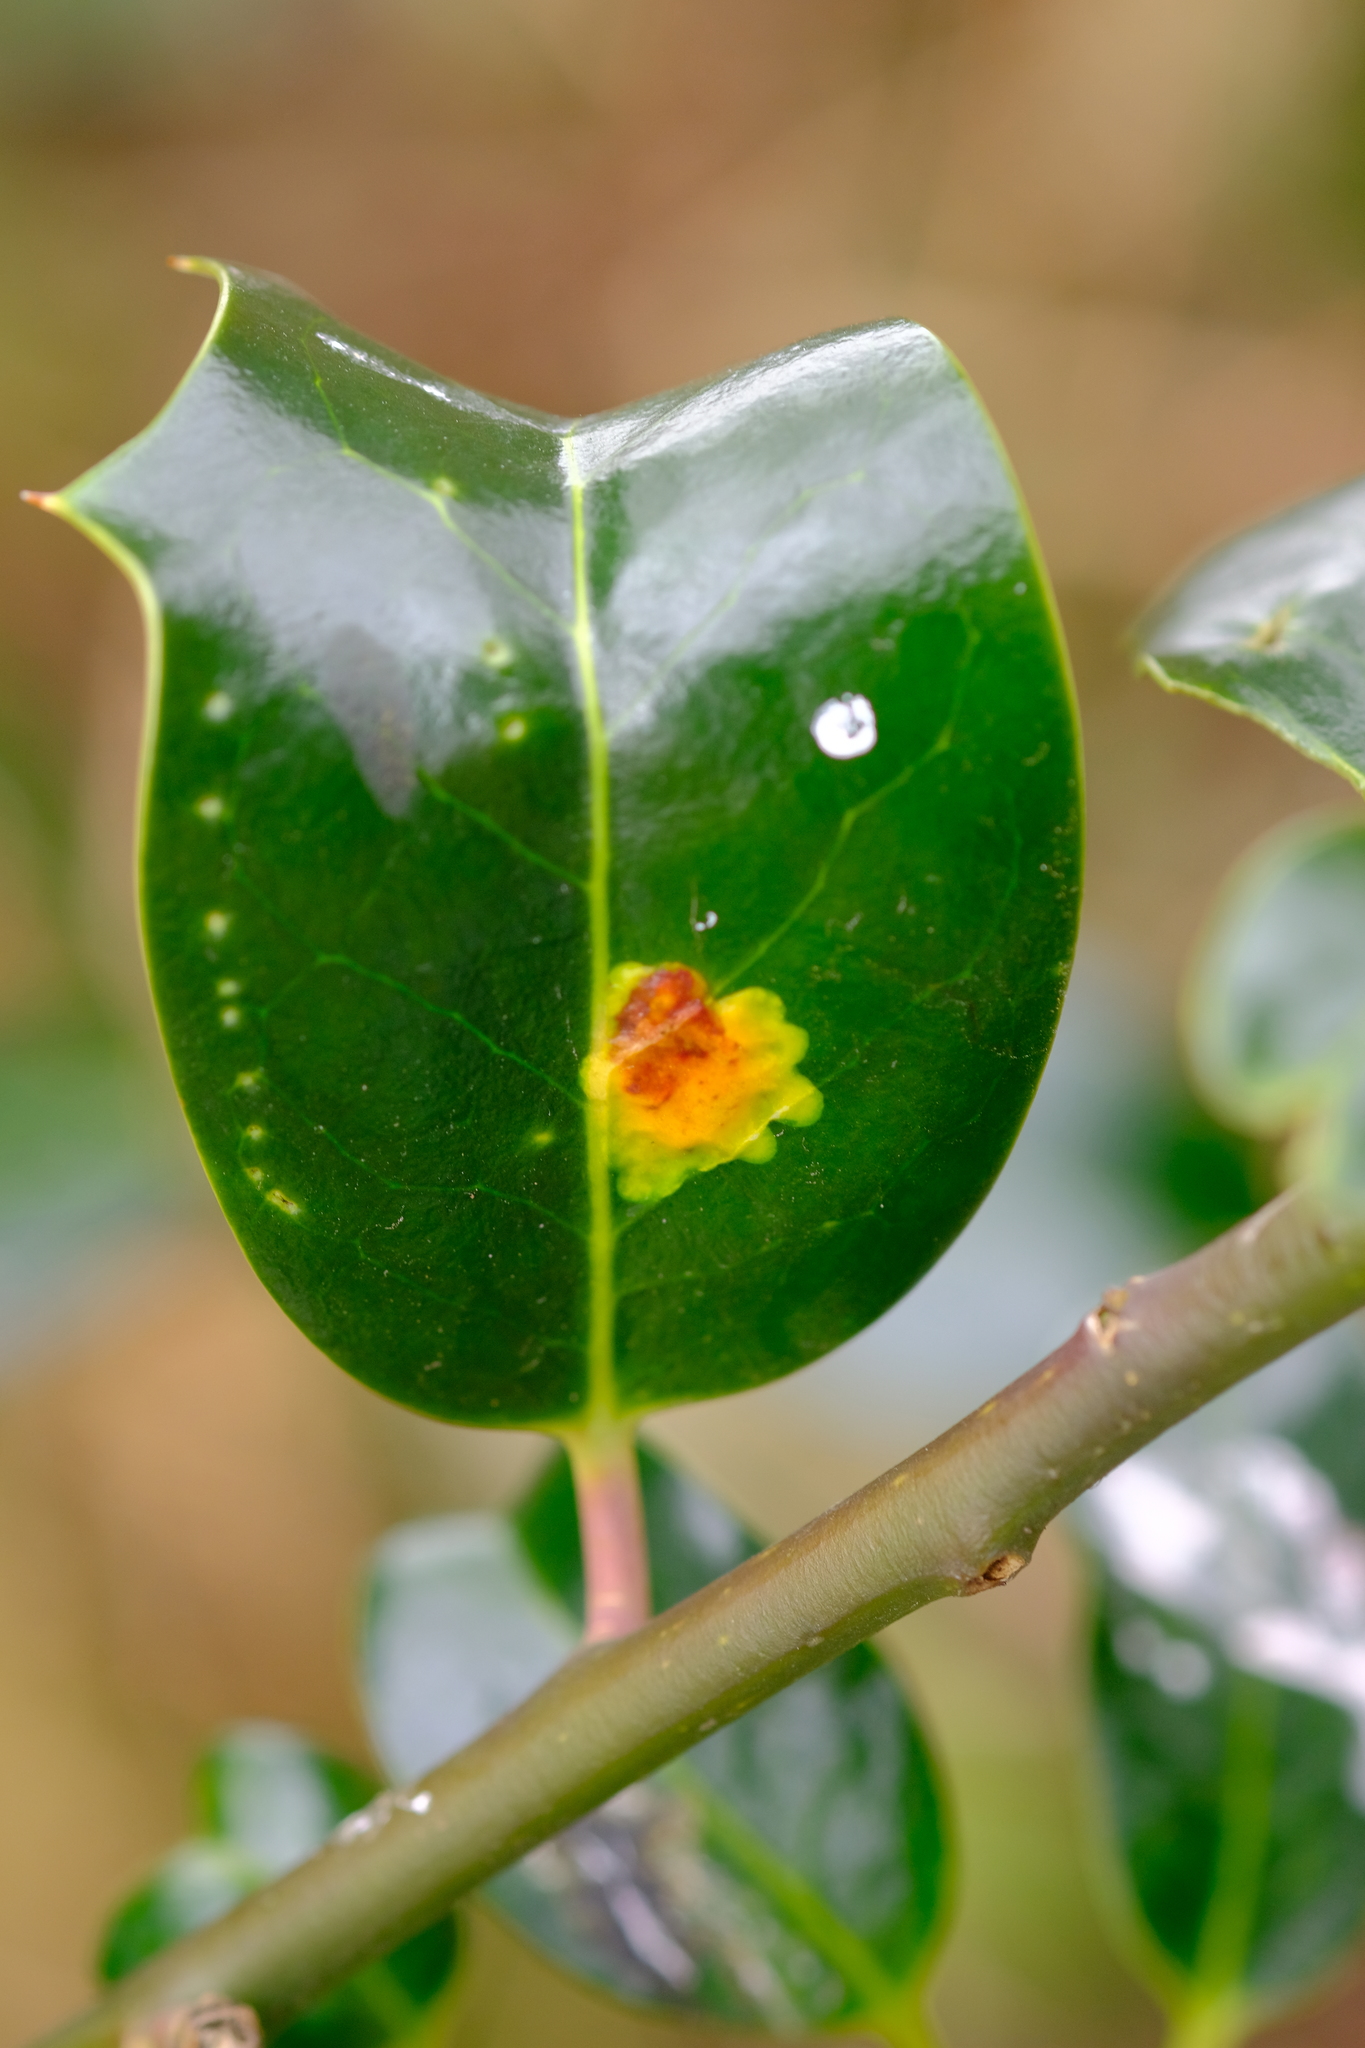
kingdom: Animalia
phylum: Arthropoda
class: Insecta
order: Diptera
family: Agromyzidae
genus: Phytomyza
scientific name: Phytomyza ilicis
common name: Holly leafminer
